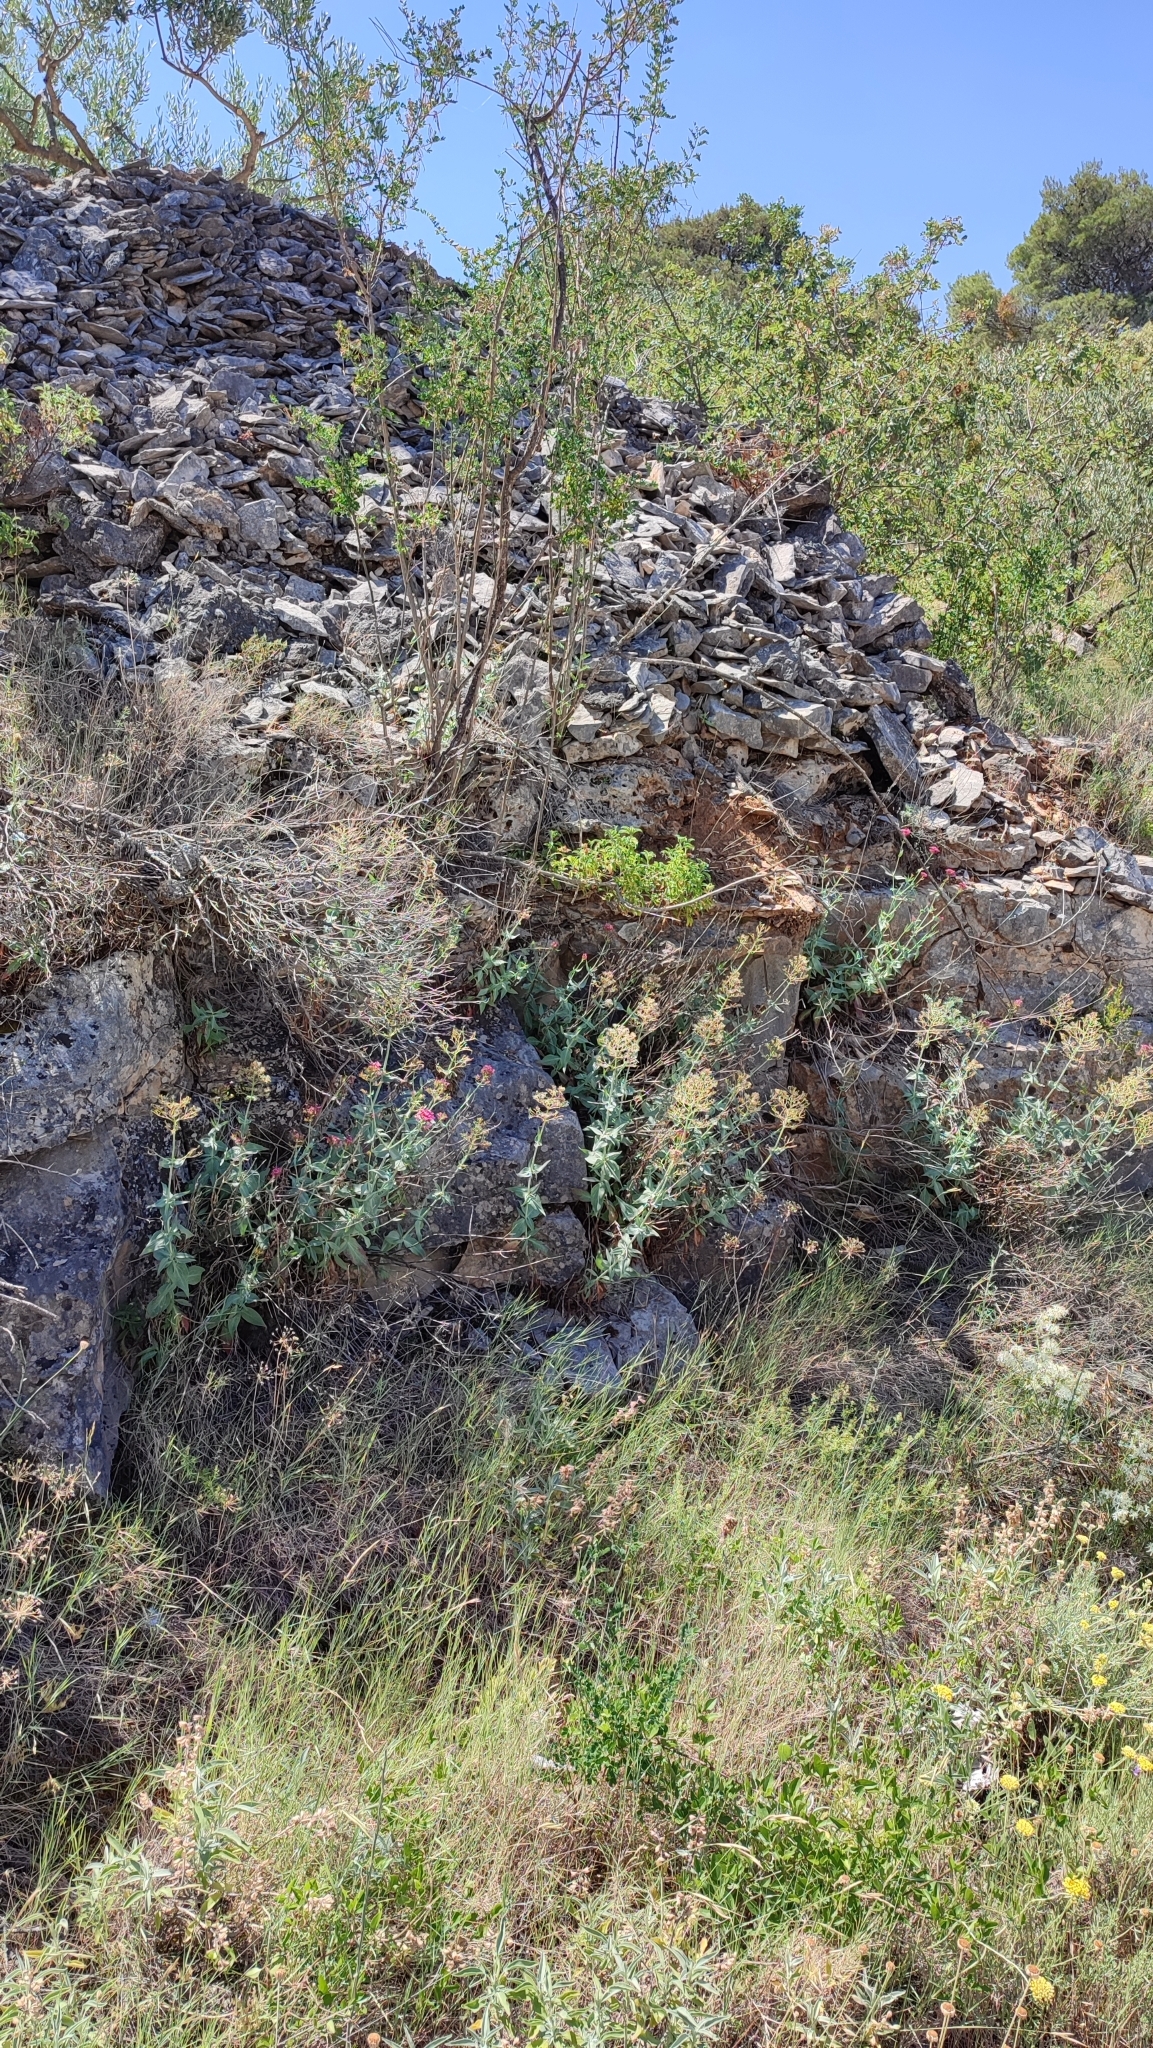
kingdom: Plantae
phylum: Tracheophyta
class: Magnoliopsida
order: Dipsacales
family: Caprifoliaceae
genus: Centranthus
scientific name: Centranthus ruber
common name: Red valerian
